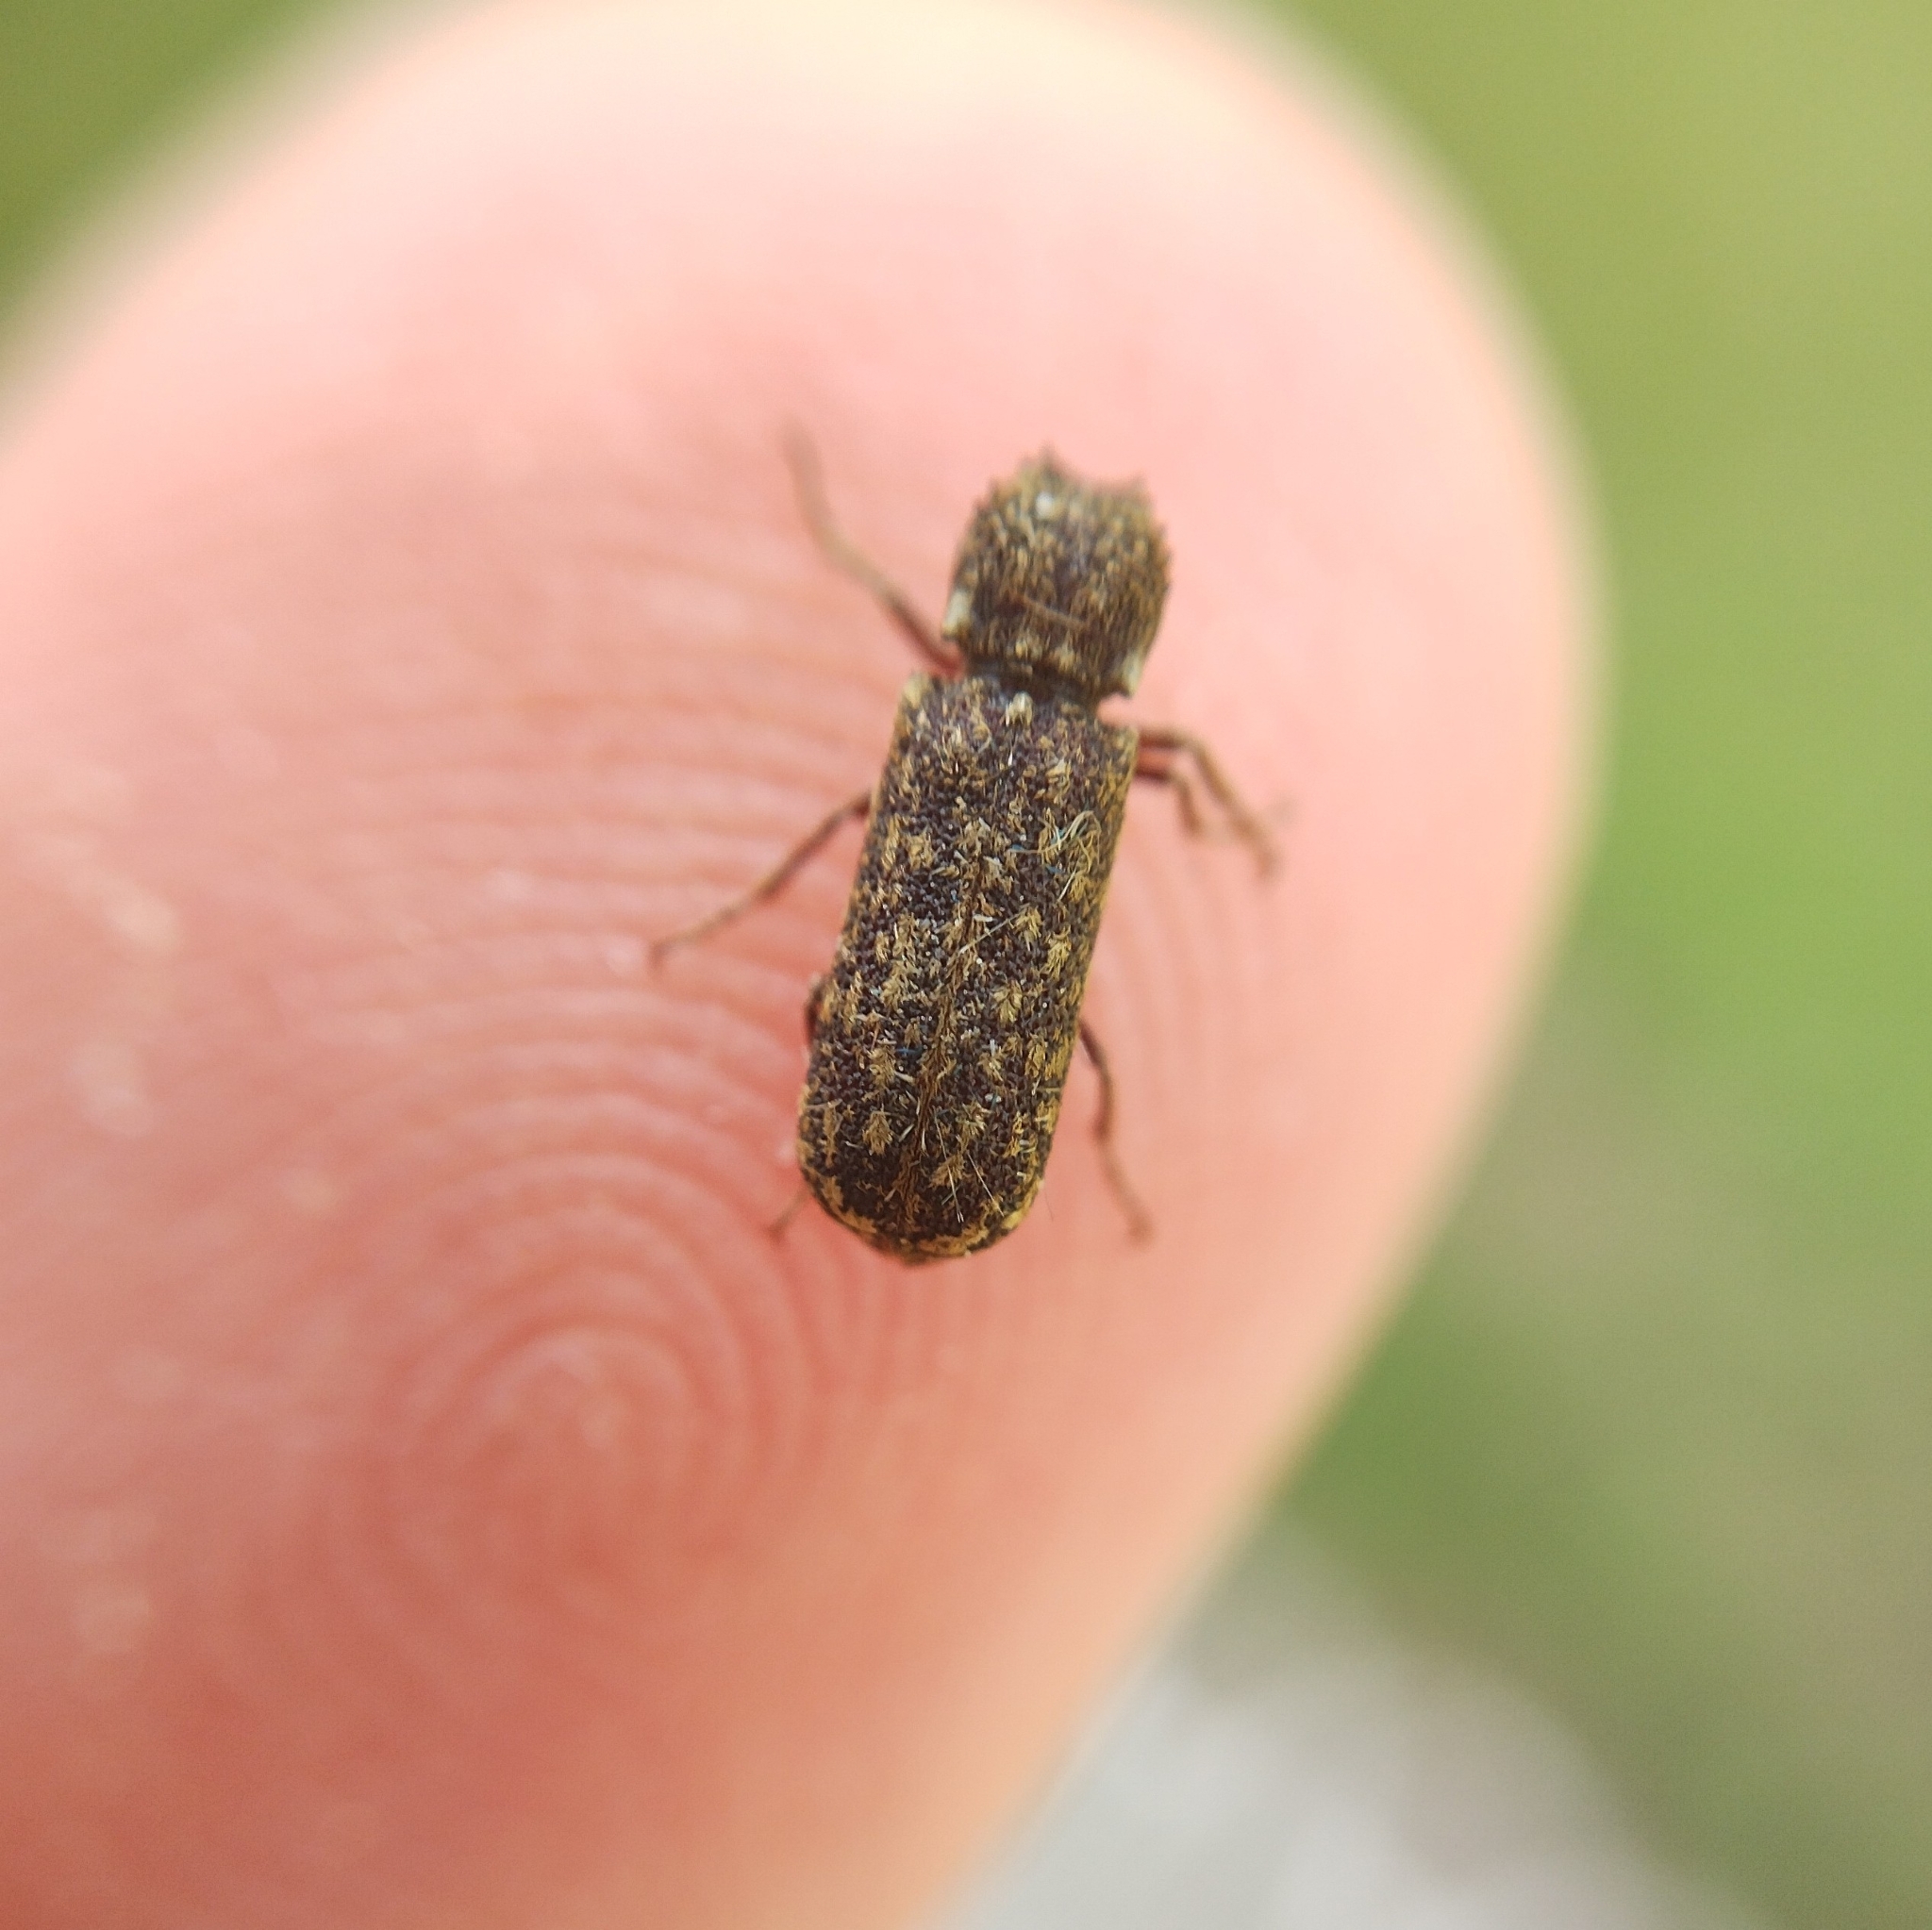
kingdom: Animalia
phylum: Arthropoda
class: Insecta
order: Coleoptera
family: Bostrichidae
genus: Lichenophanes
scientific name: Lichenophanes varius
